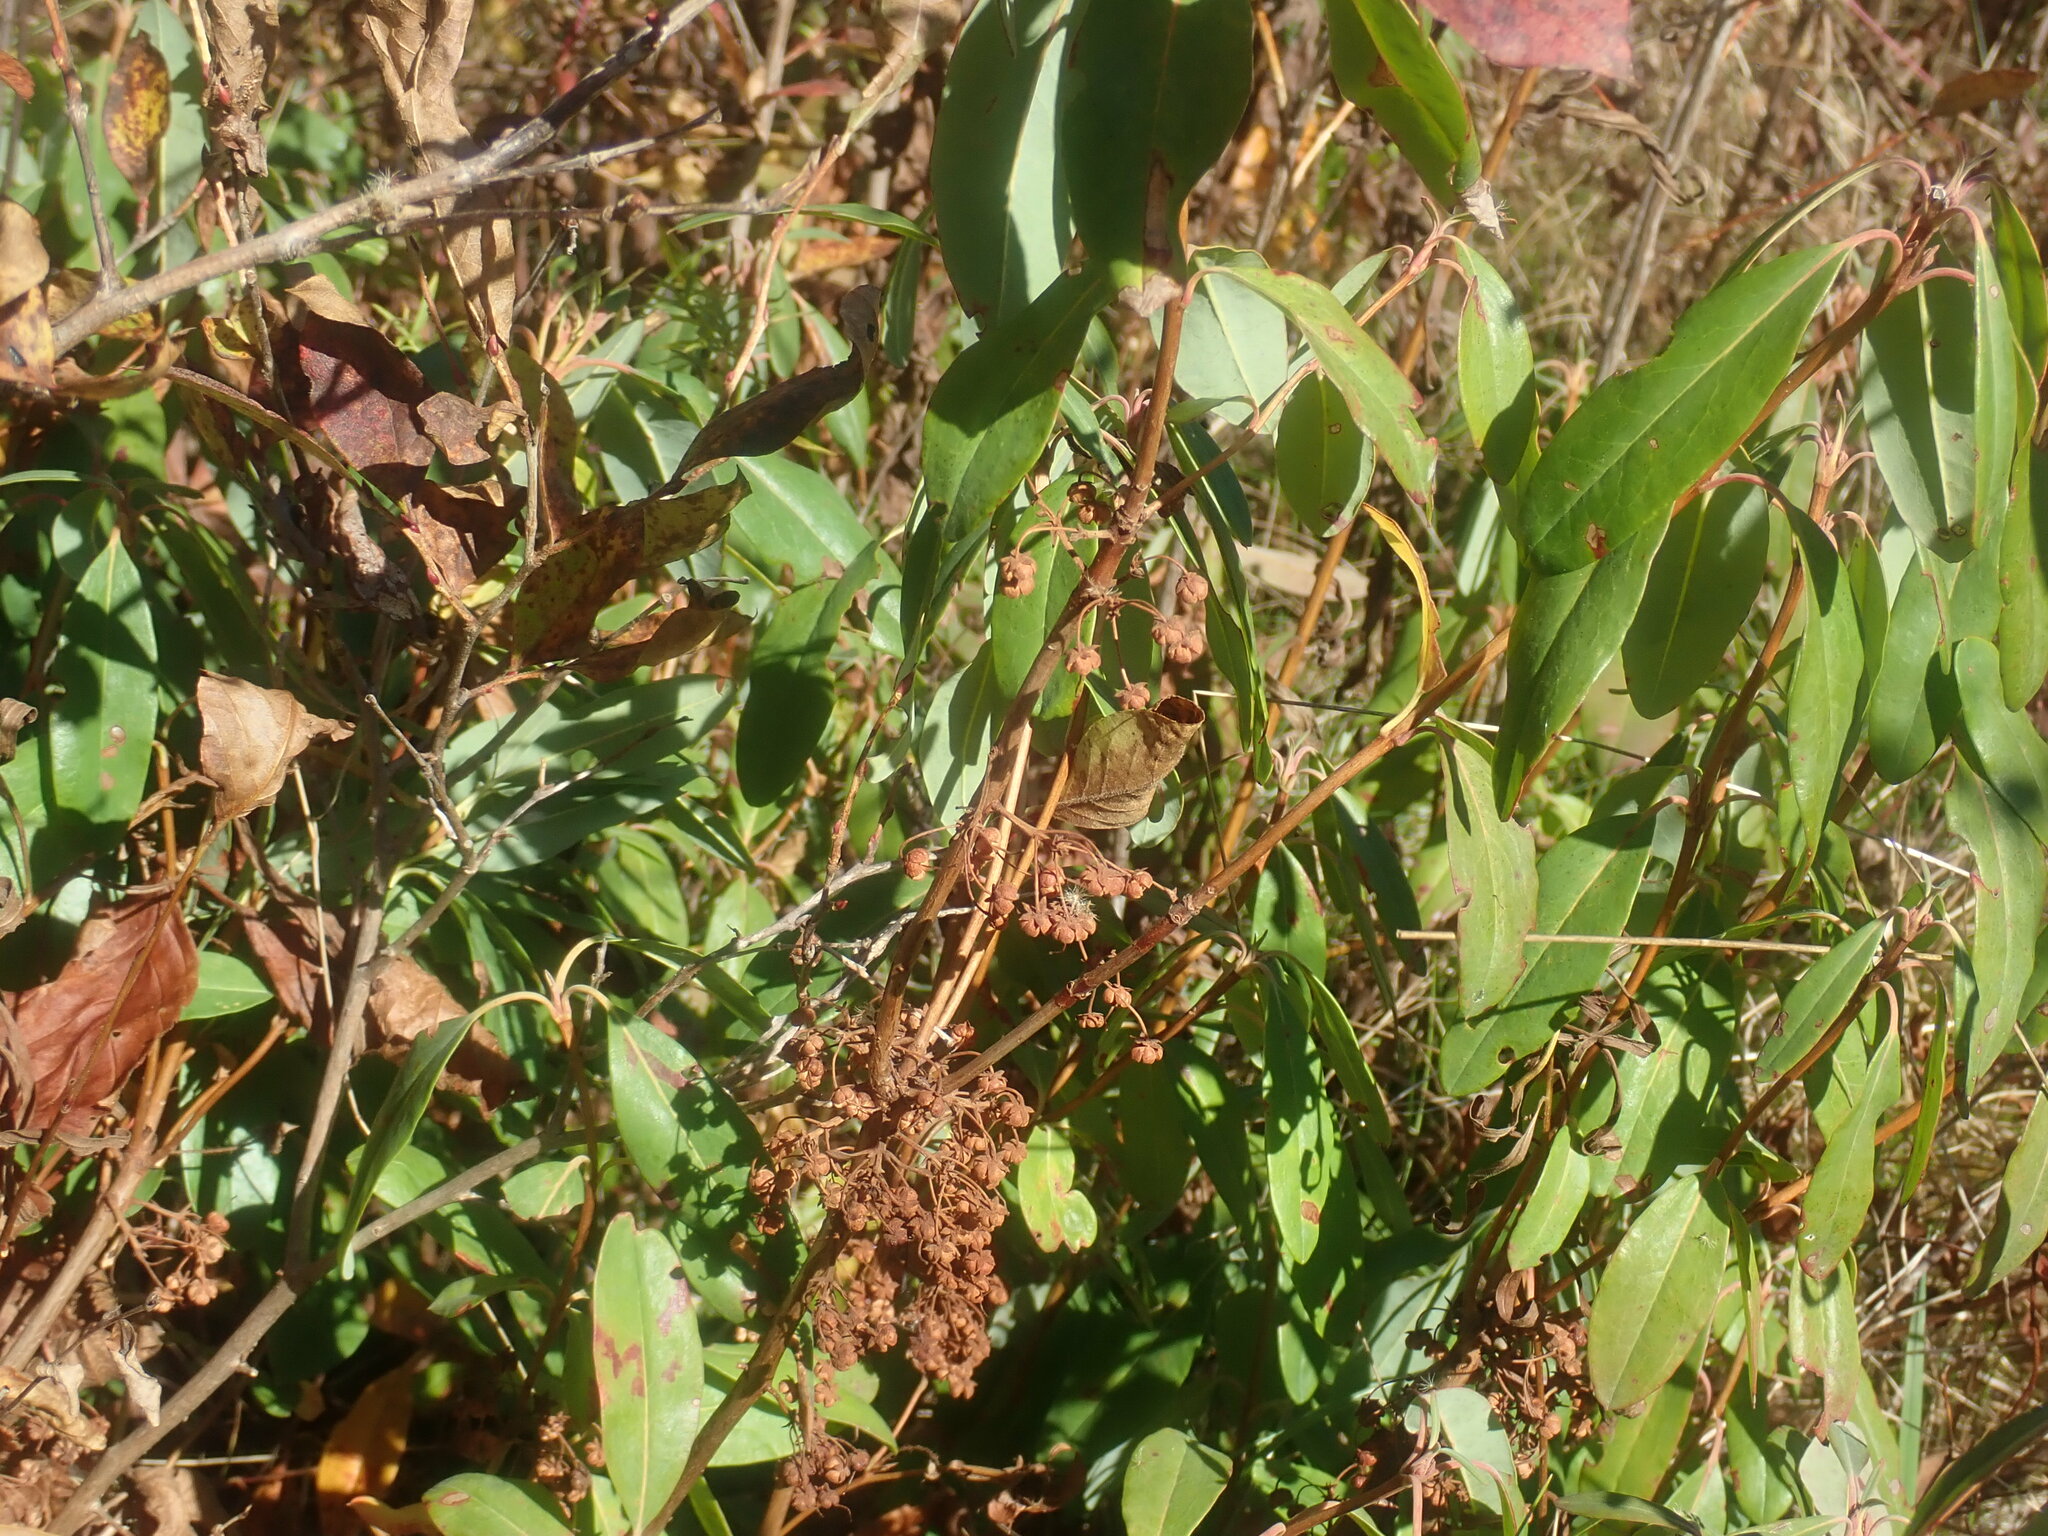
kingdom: Plantae
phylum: Tracheophyta
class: Magnoliopsida
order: Ericales
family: Ericaceae
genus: Kalmia
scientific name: Kalmia angustifolia
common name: Sheep-laurel
